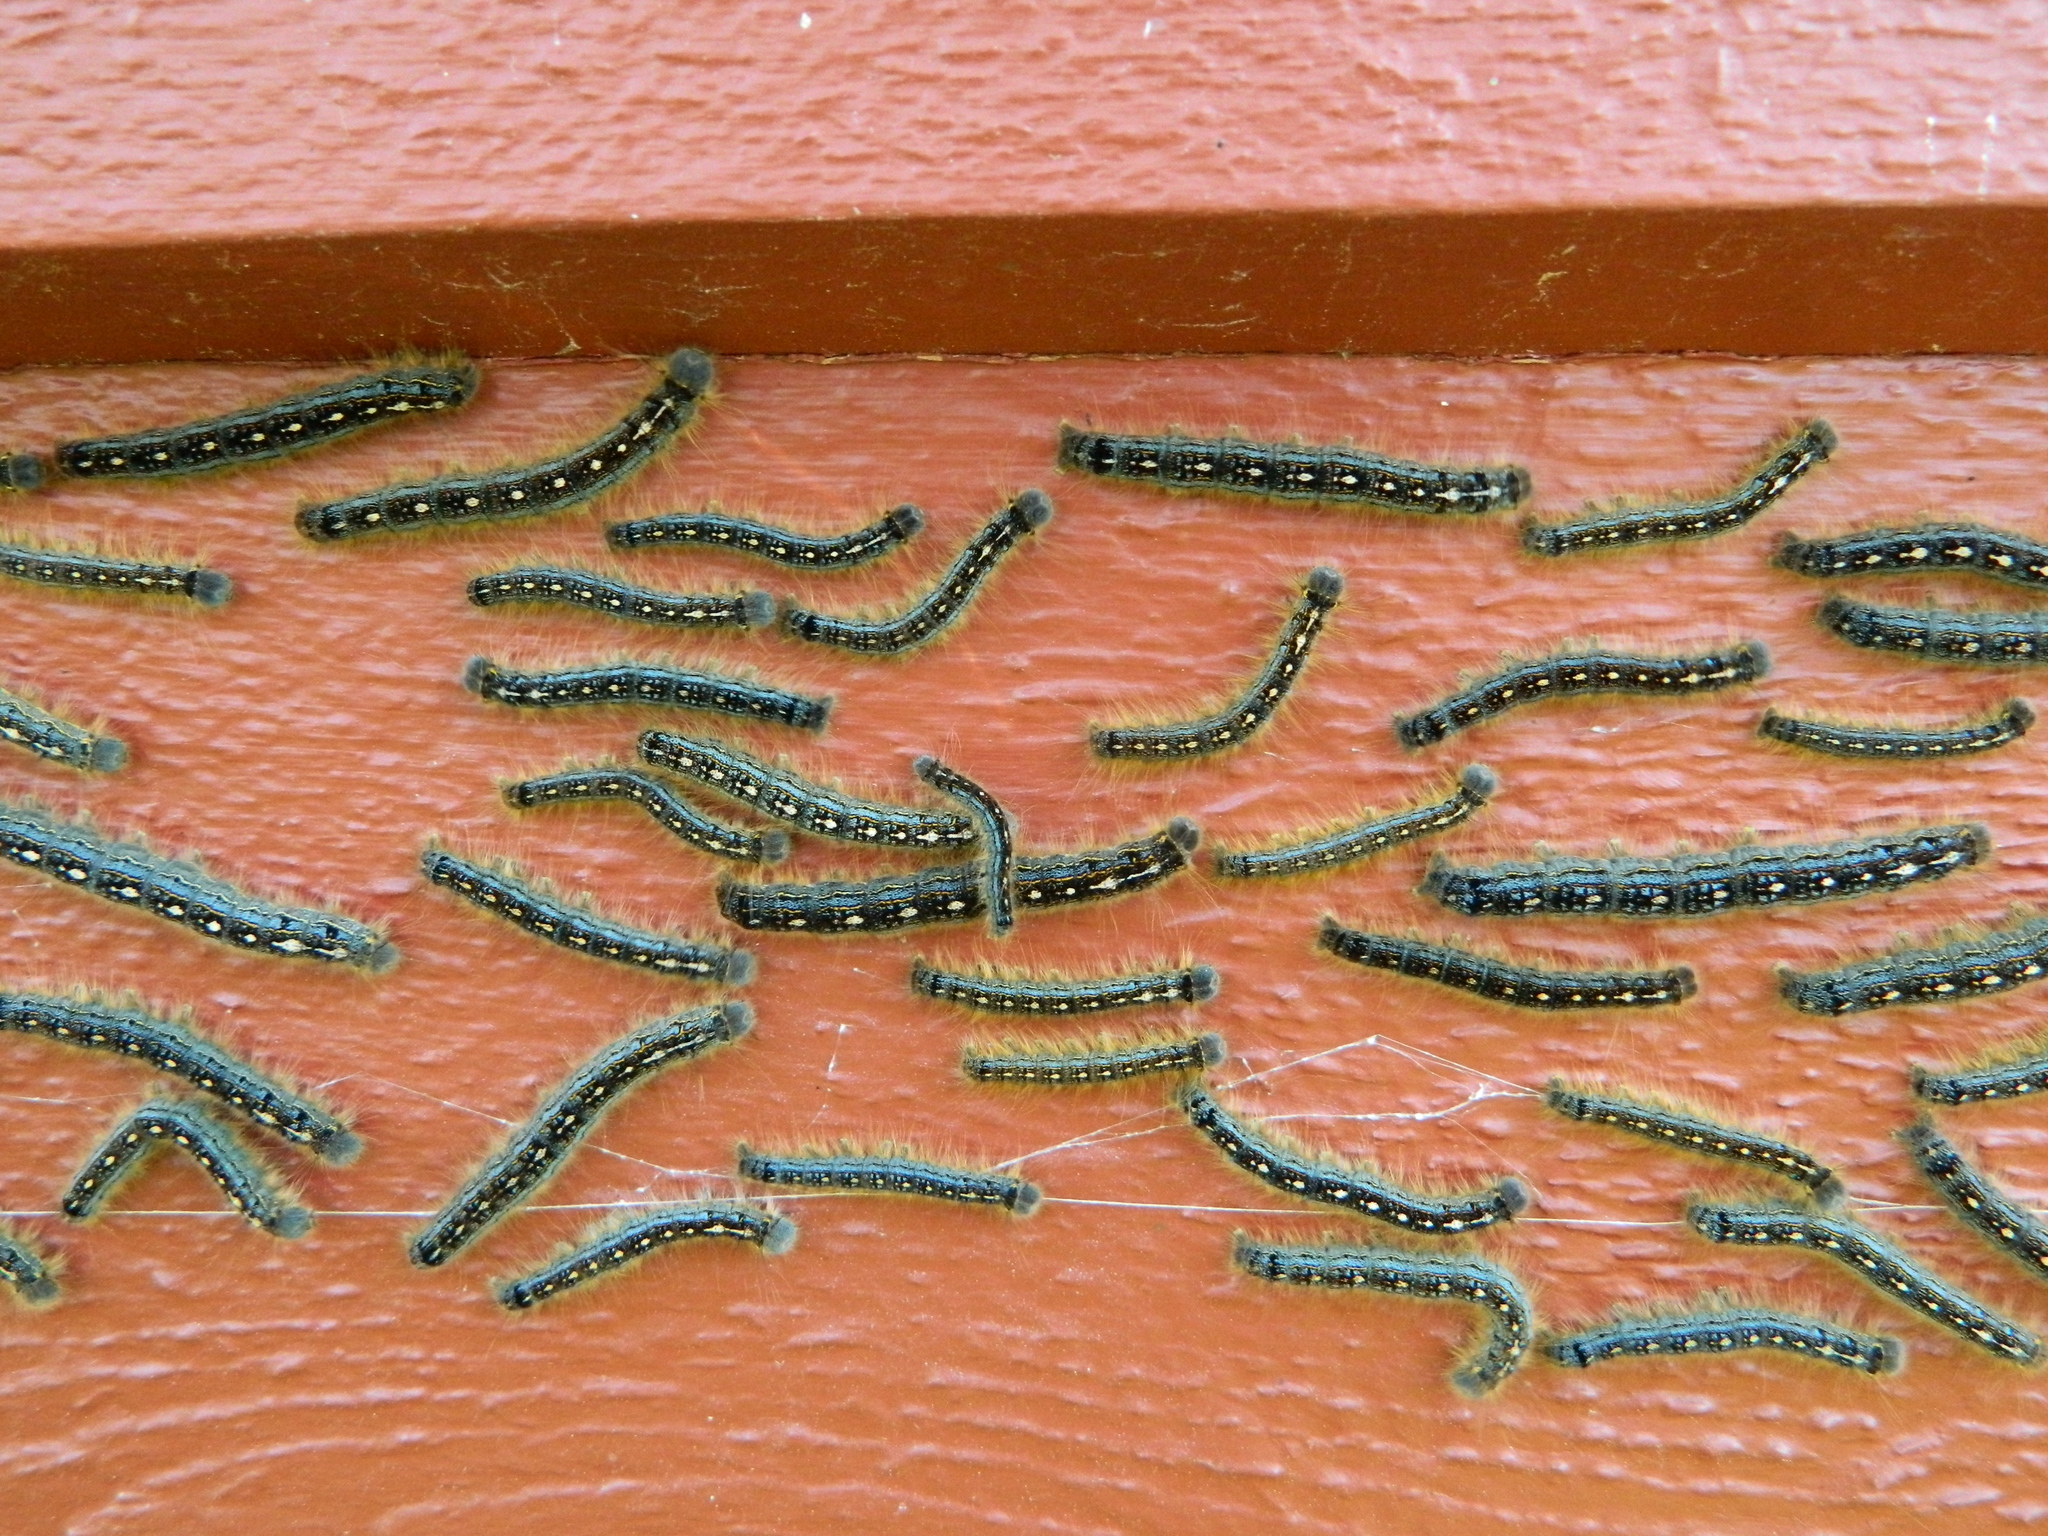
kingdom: Animalia
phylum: Arthropoda
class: Insecta
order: Lepidoptera
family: Lasiocampidae
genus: Malacosoma
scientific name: Malacosoma disstria
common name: Forest tent caterpillar
